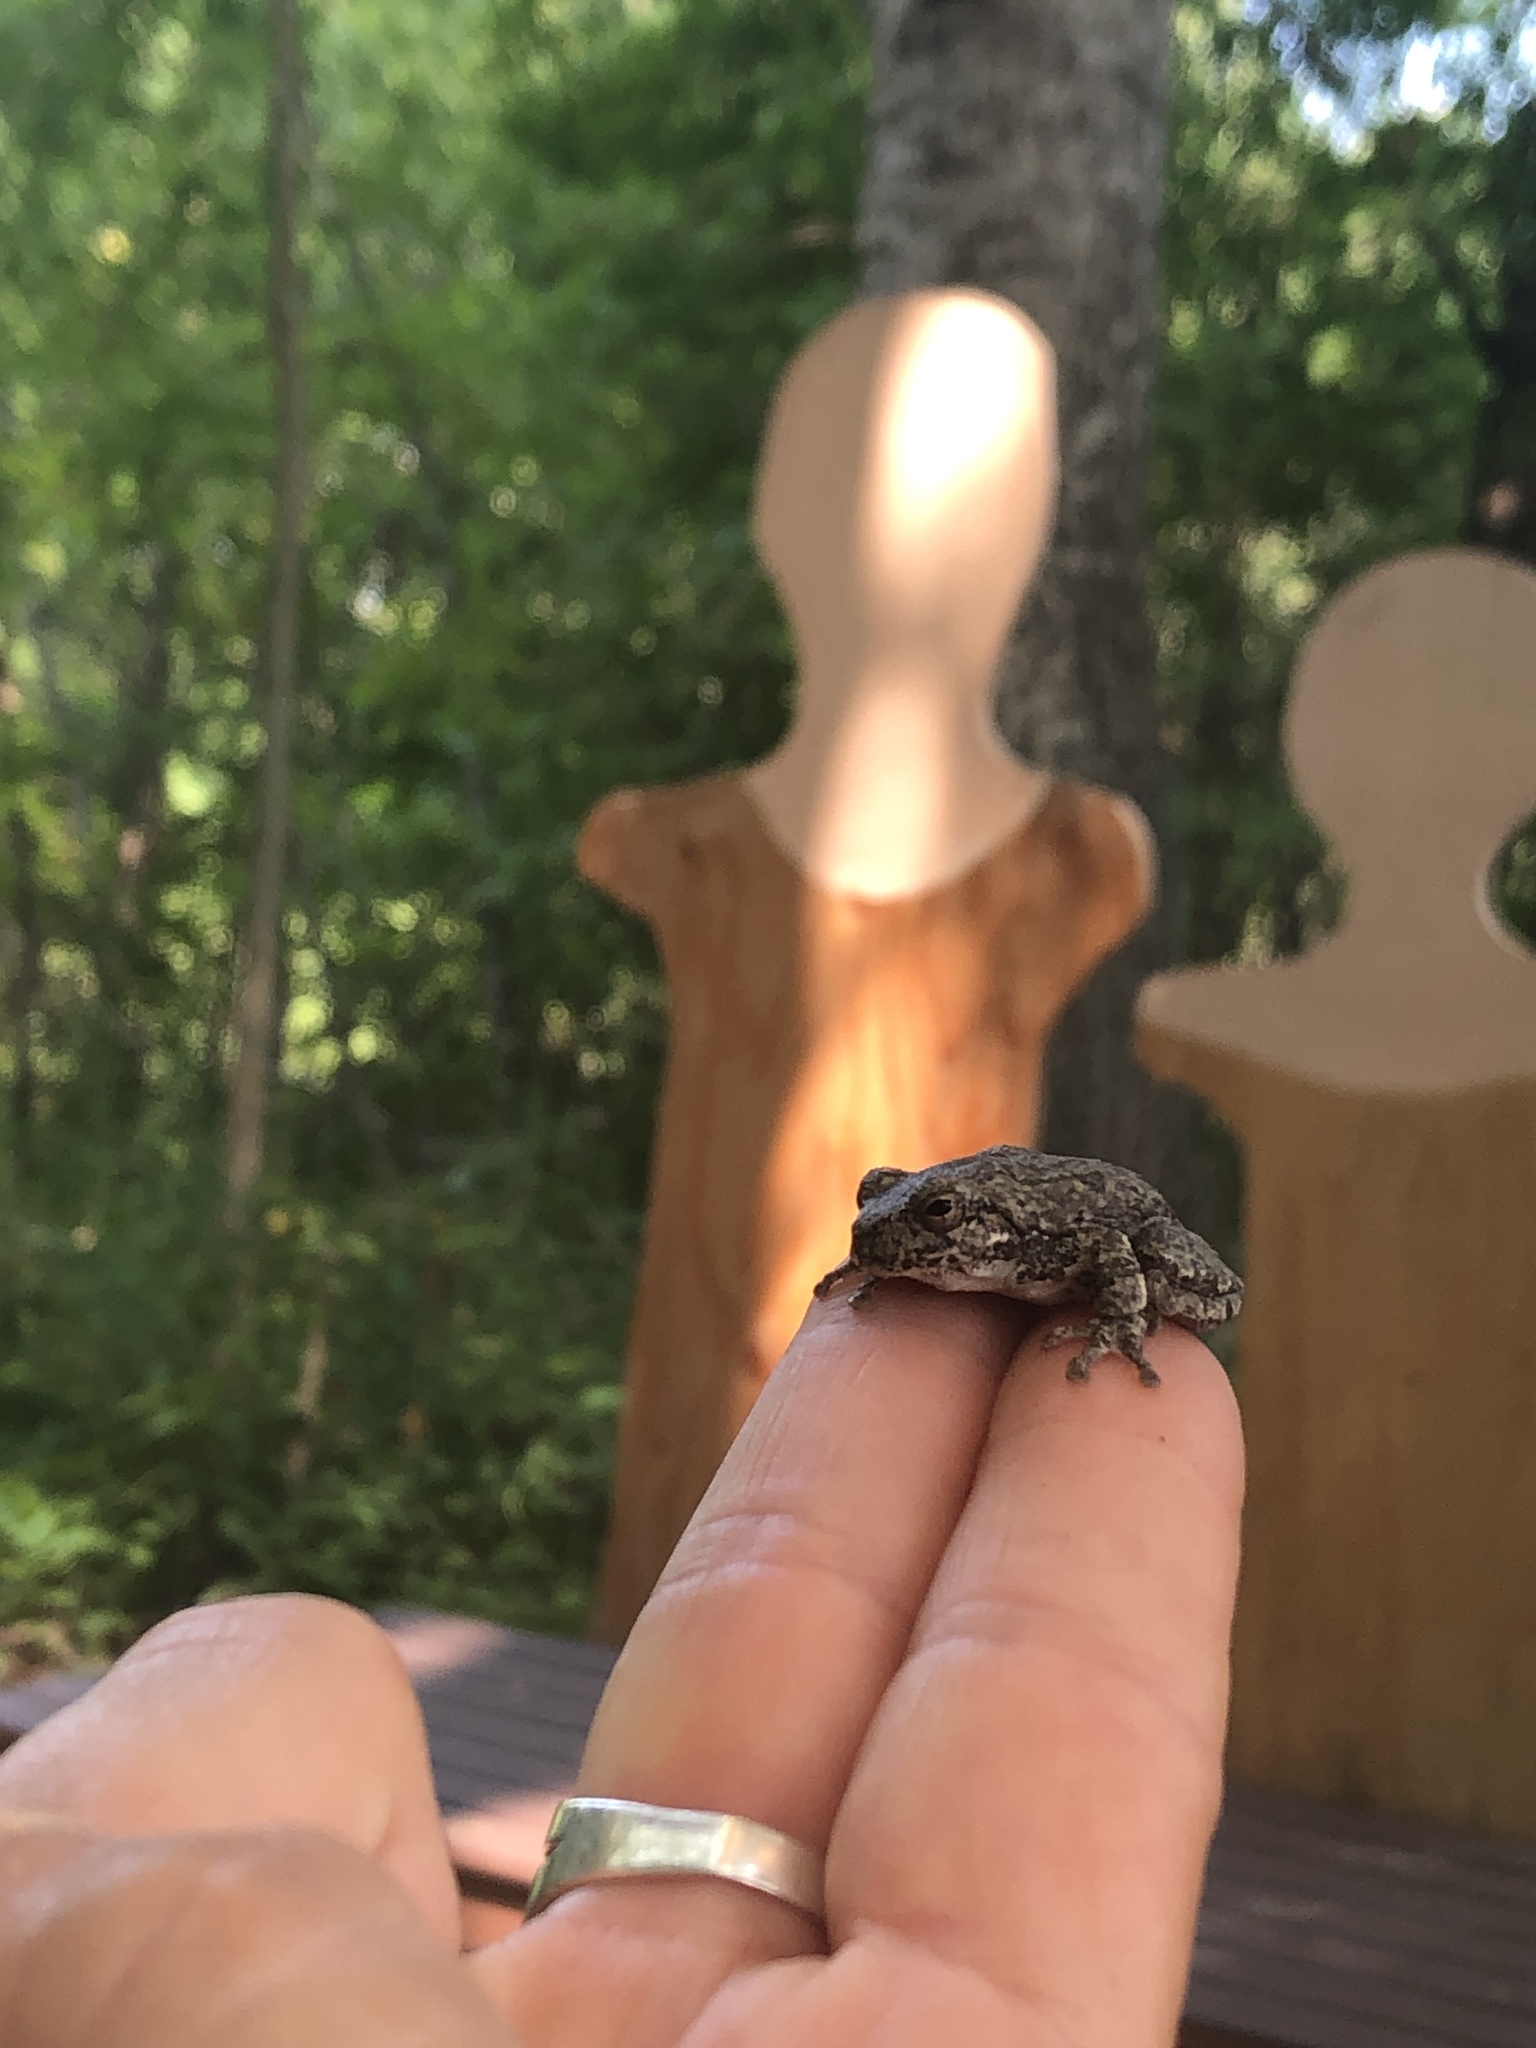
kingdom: Animalia
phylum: Chordata
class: Amphibia
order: Anura
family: Hylidae
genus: Hyla
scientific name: Hyla
